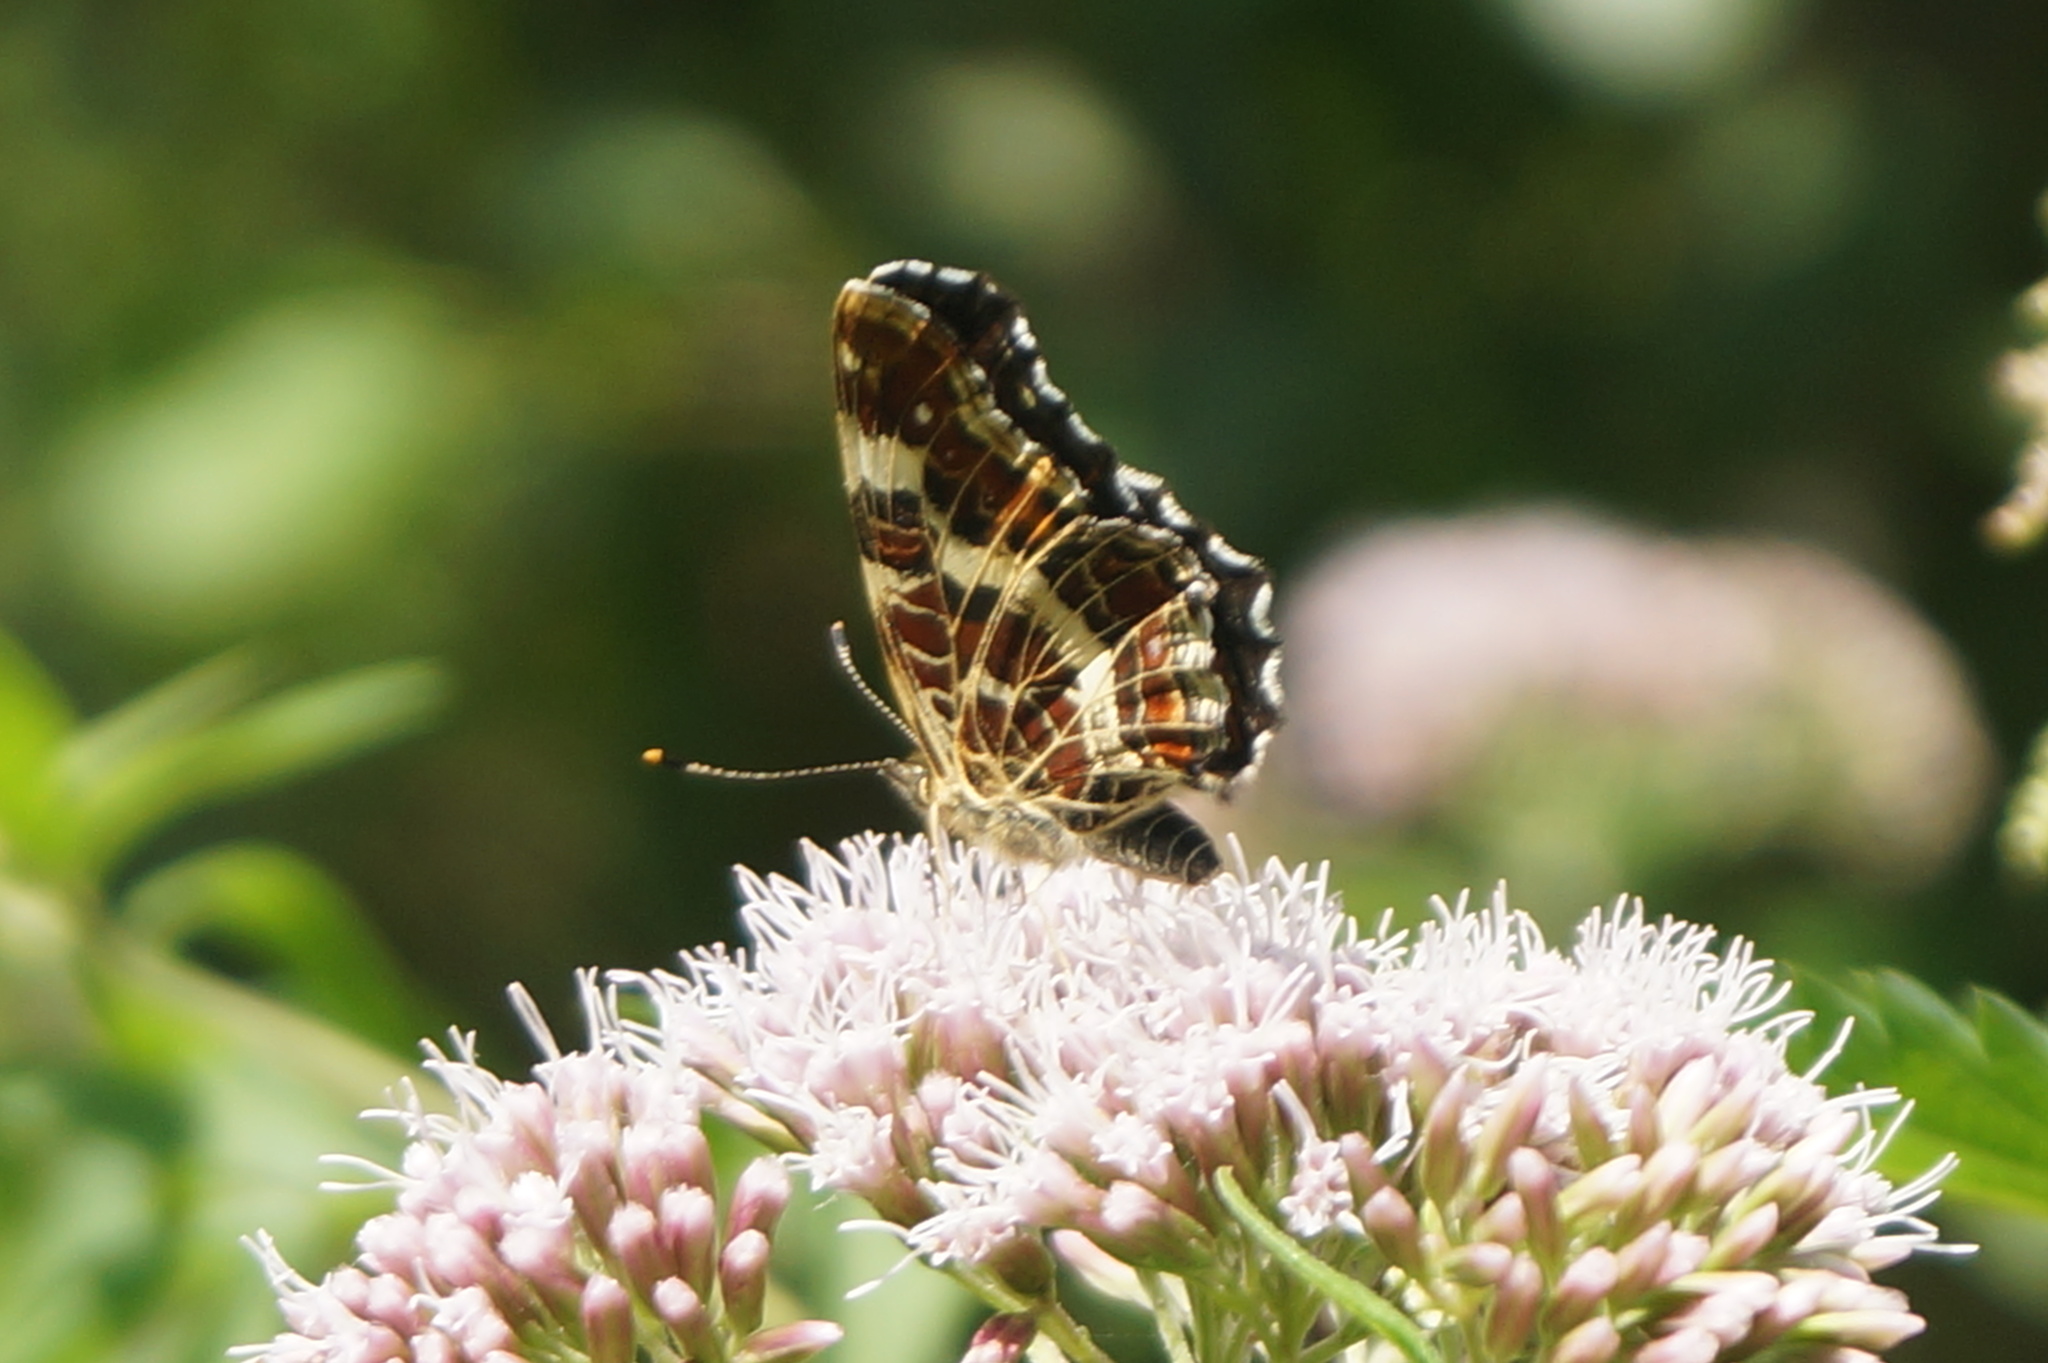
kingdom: Animalia
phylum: Arthropoda
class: Insecta
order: Lepidoptera
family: Nymphalidae
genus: Araschnia
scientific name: Araschnia levana
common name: Map butterfly
